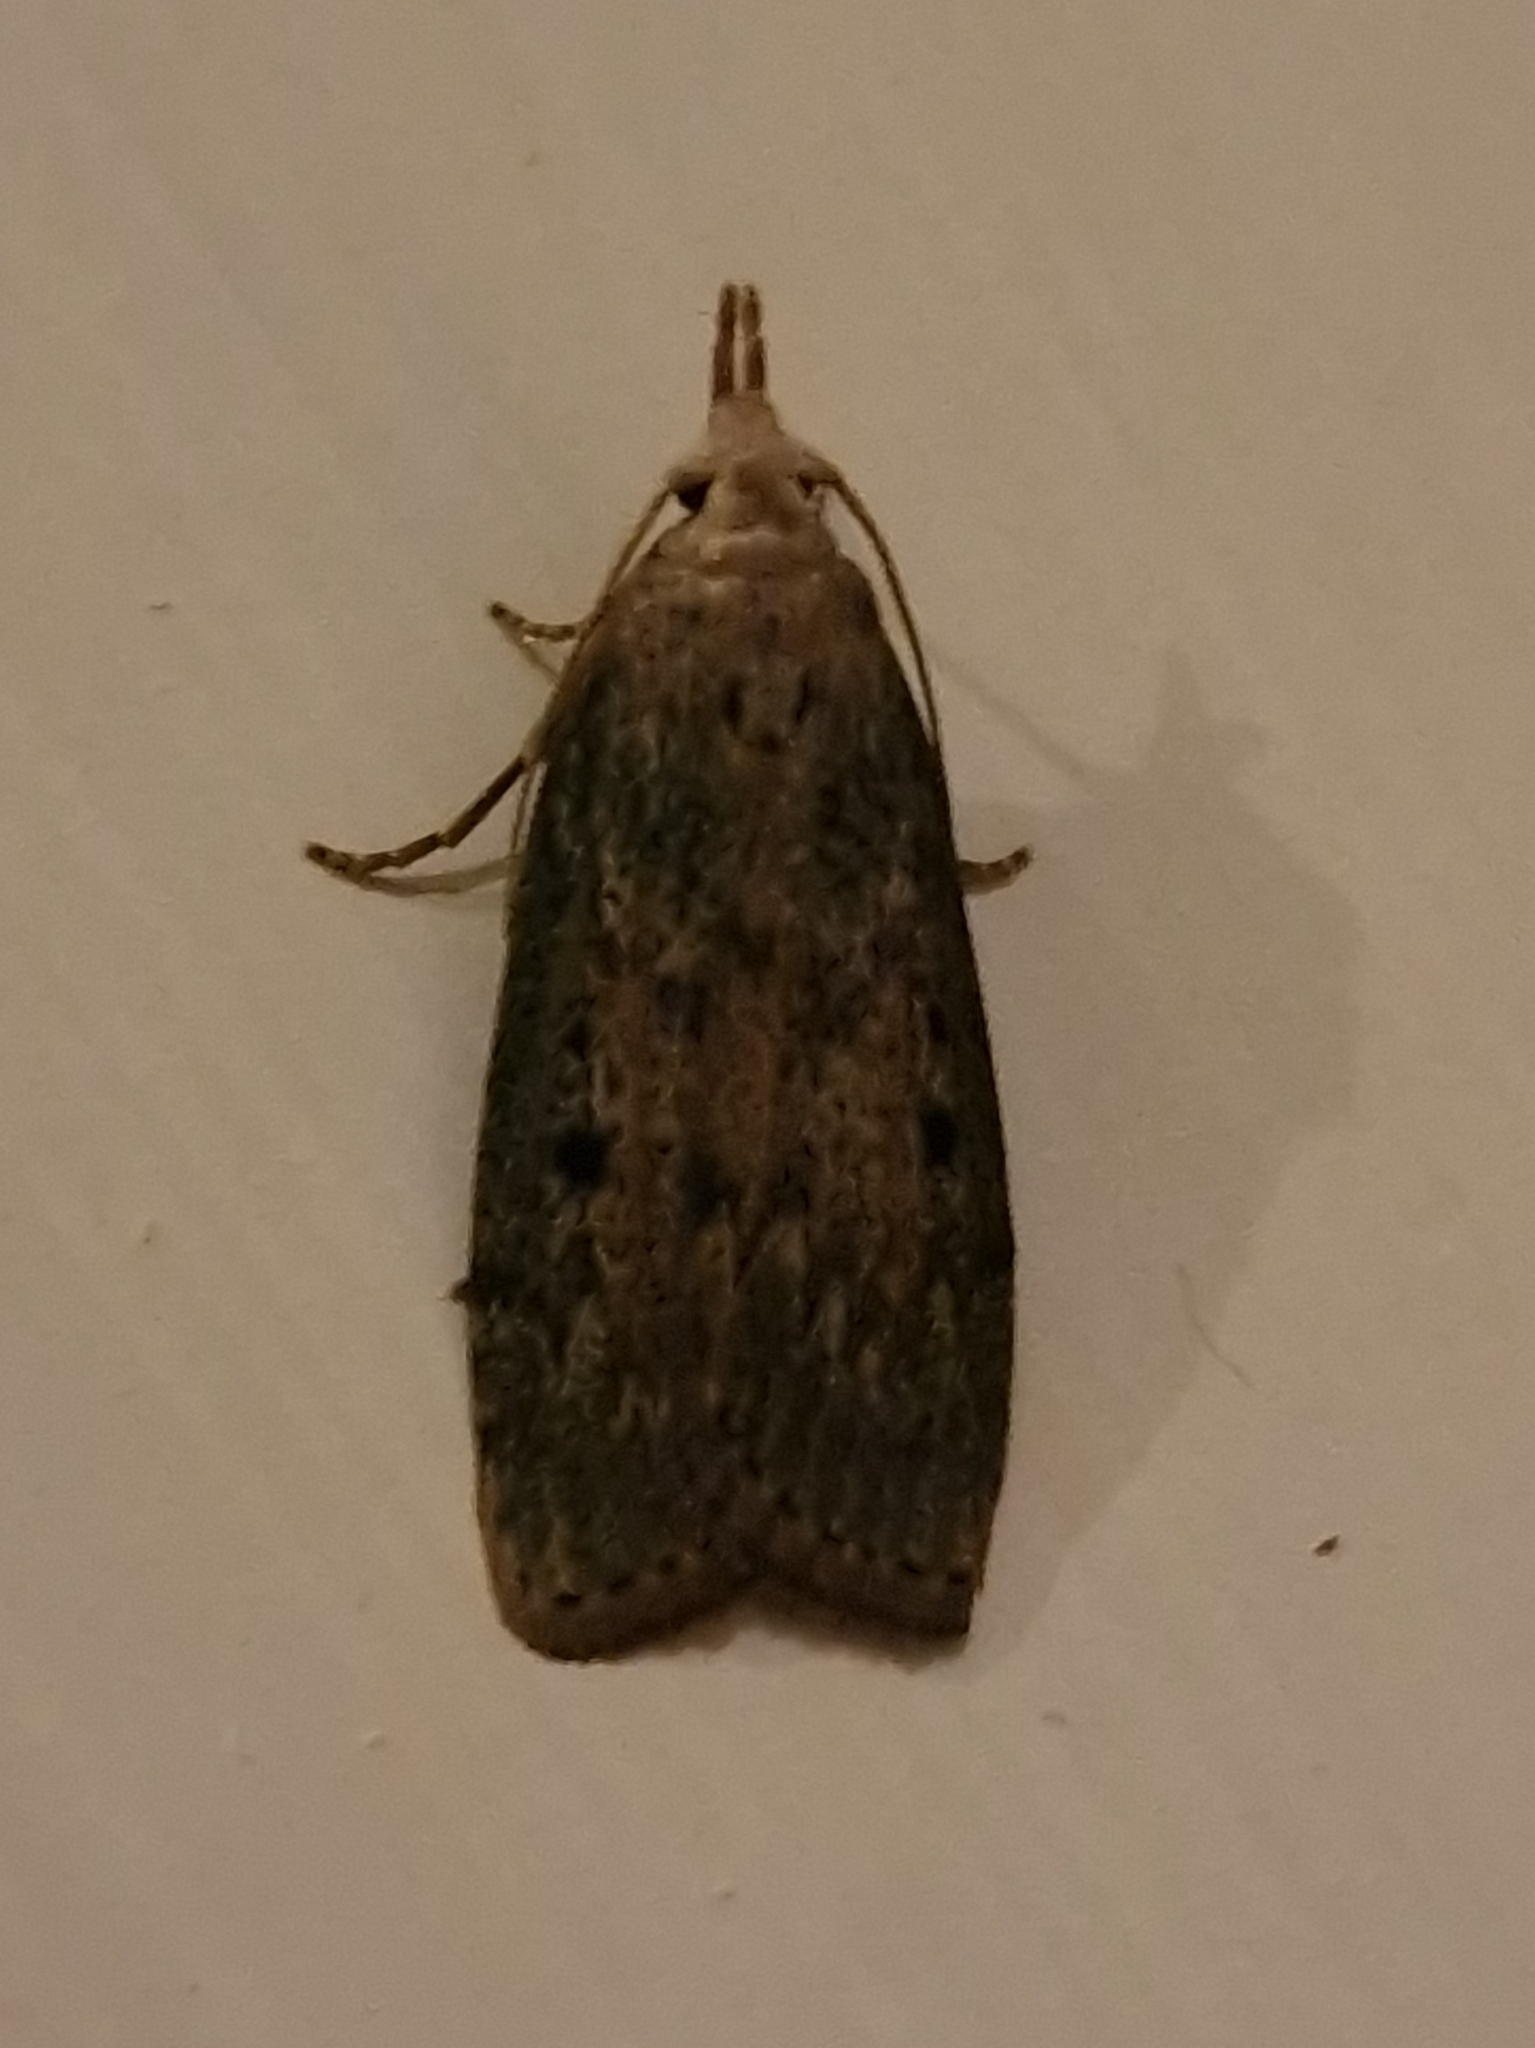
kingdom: Animalia
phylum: Arthropoda
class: Insecta
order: Lepidoptera
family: Pyralidae
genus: Aphomia
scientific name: Aphomia sociella
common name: Bee moth
